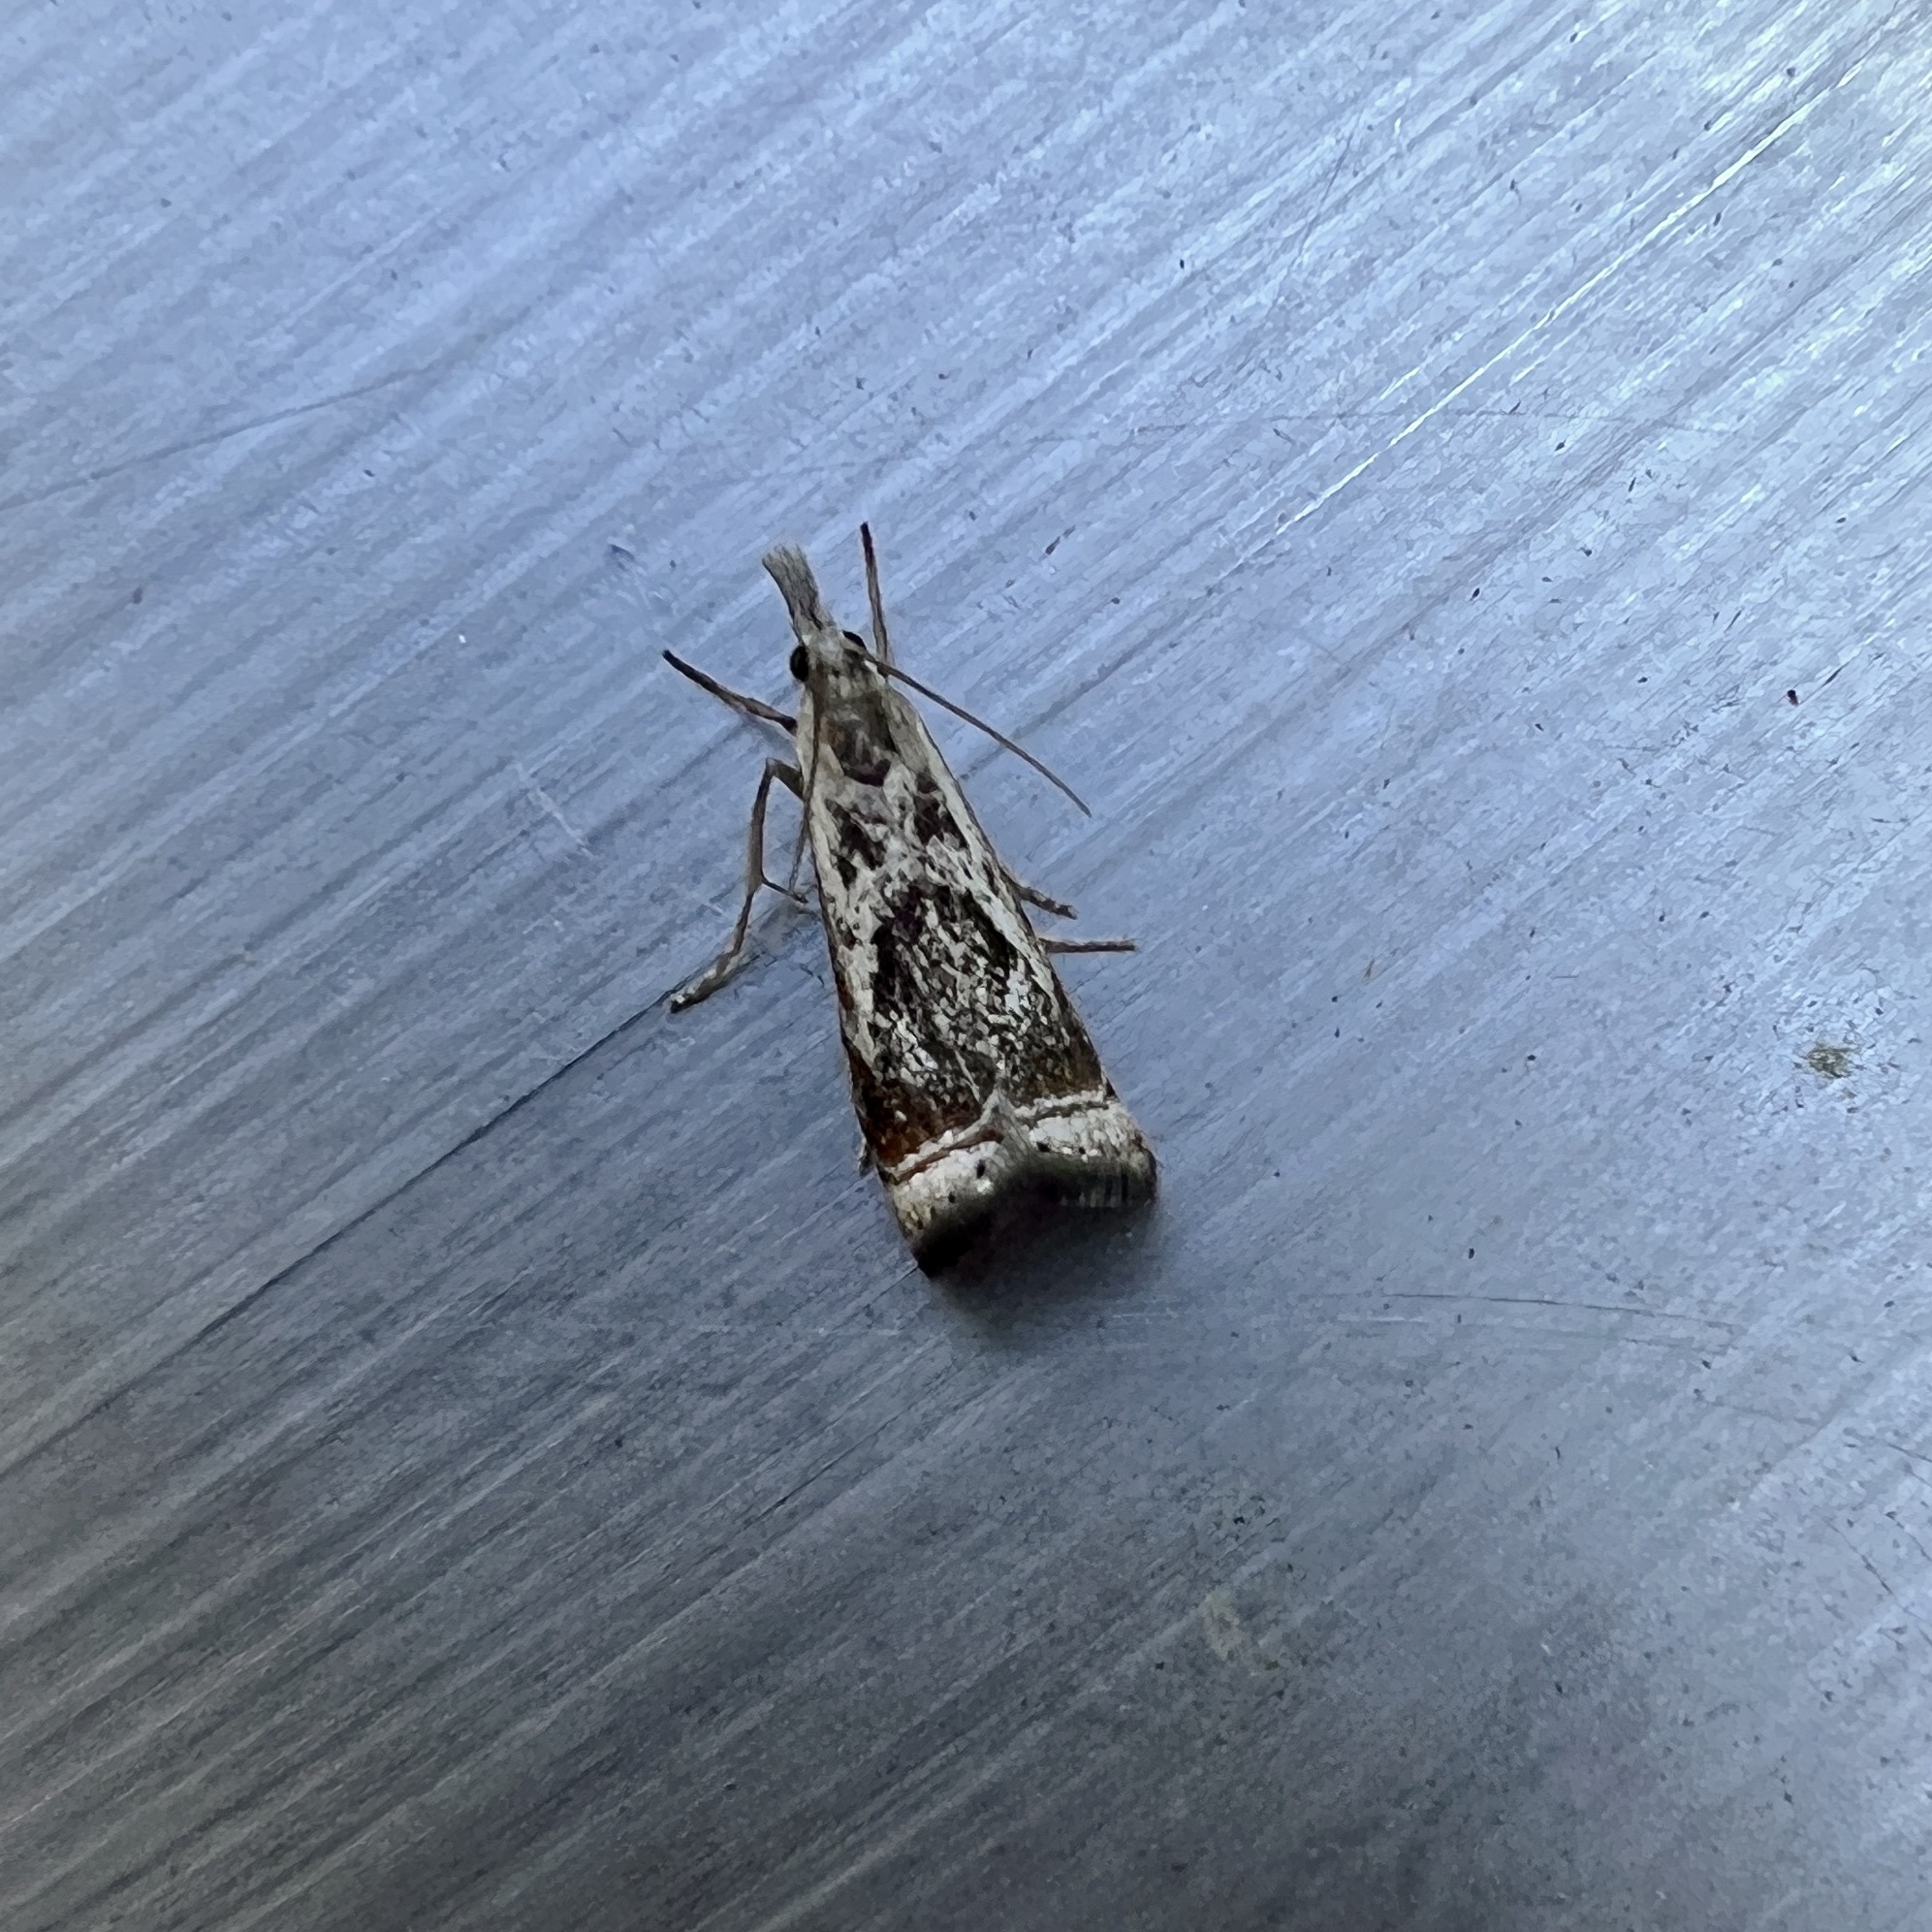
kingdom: Animalia
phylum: Arthropoda
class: Insecta
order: Lepidoptera
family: Crambidae
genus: Microcrambus
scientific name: Microcrambus elegans
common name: Elegant grass-veneer
